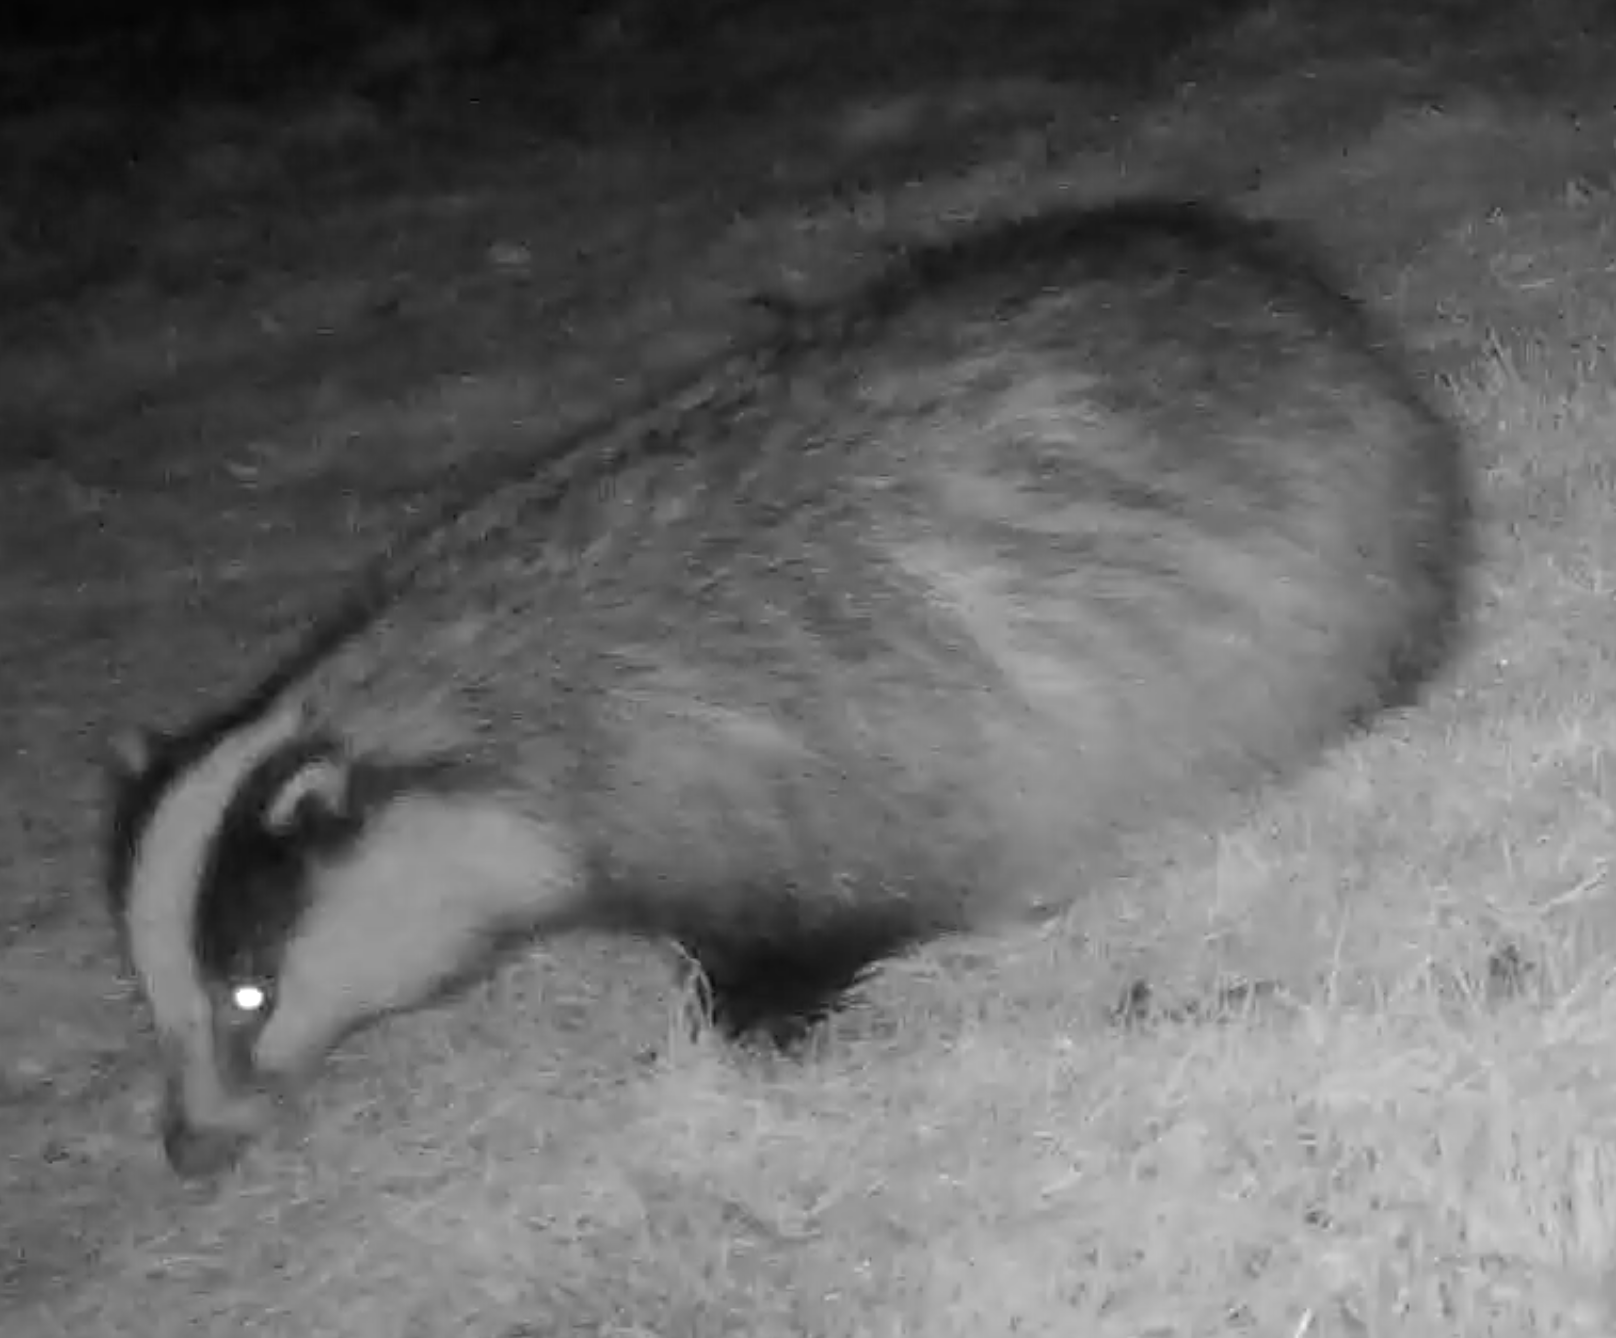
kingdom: Animalia
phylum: Chordata
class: Mammalia
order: Carnivora
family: Mustelidae
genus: Meles
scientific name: Meles meles
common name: Eurasian badger
